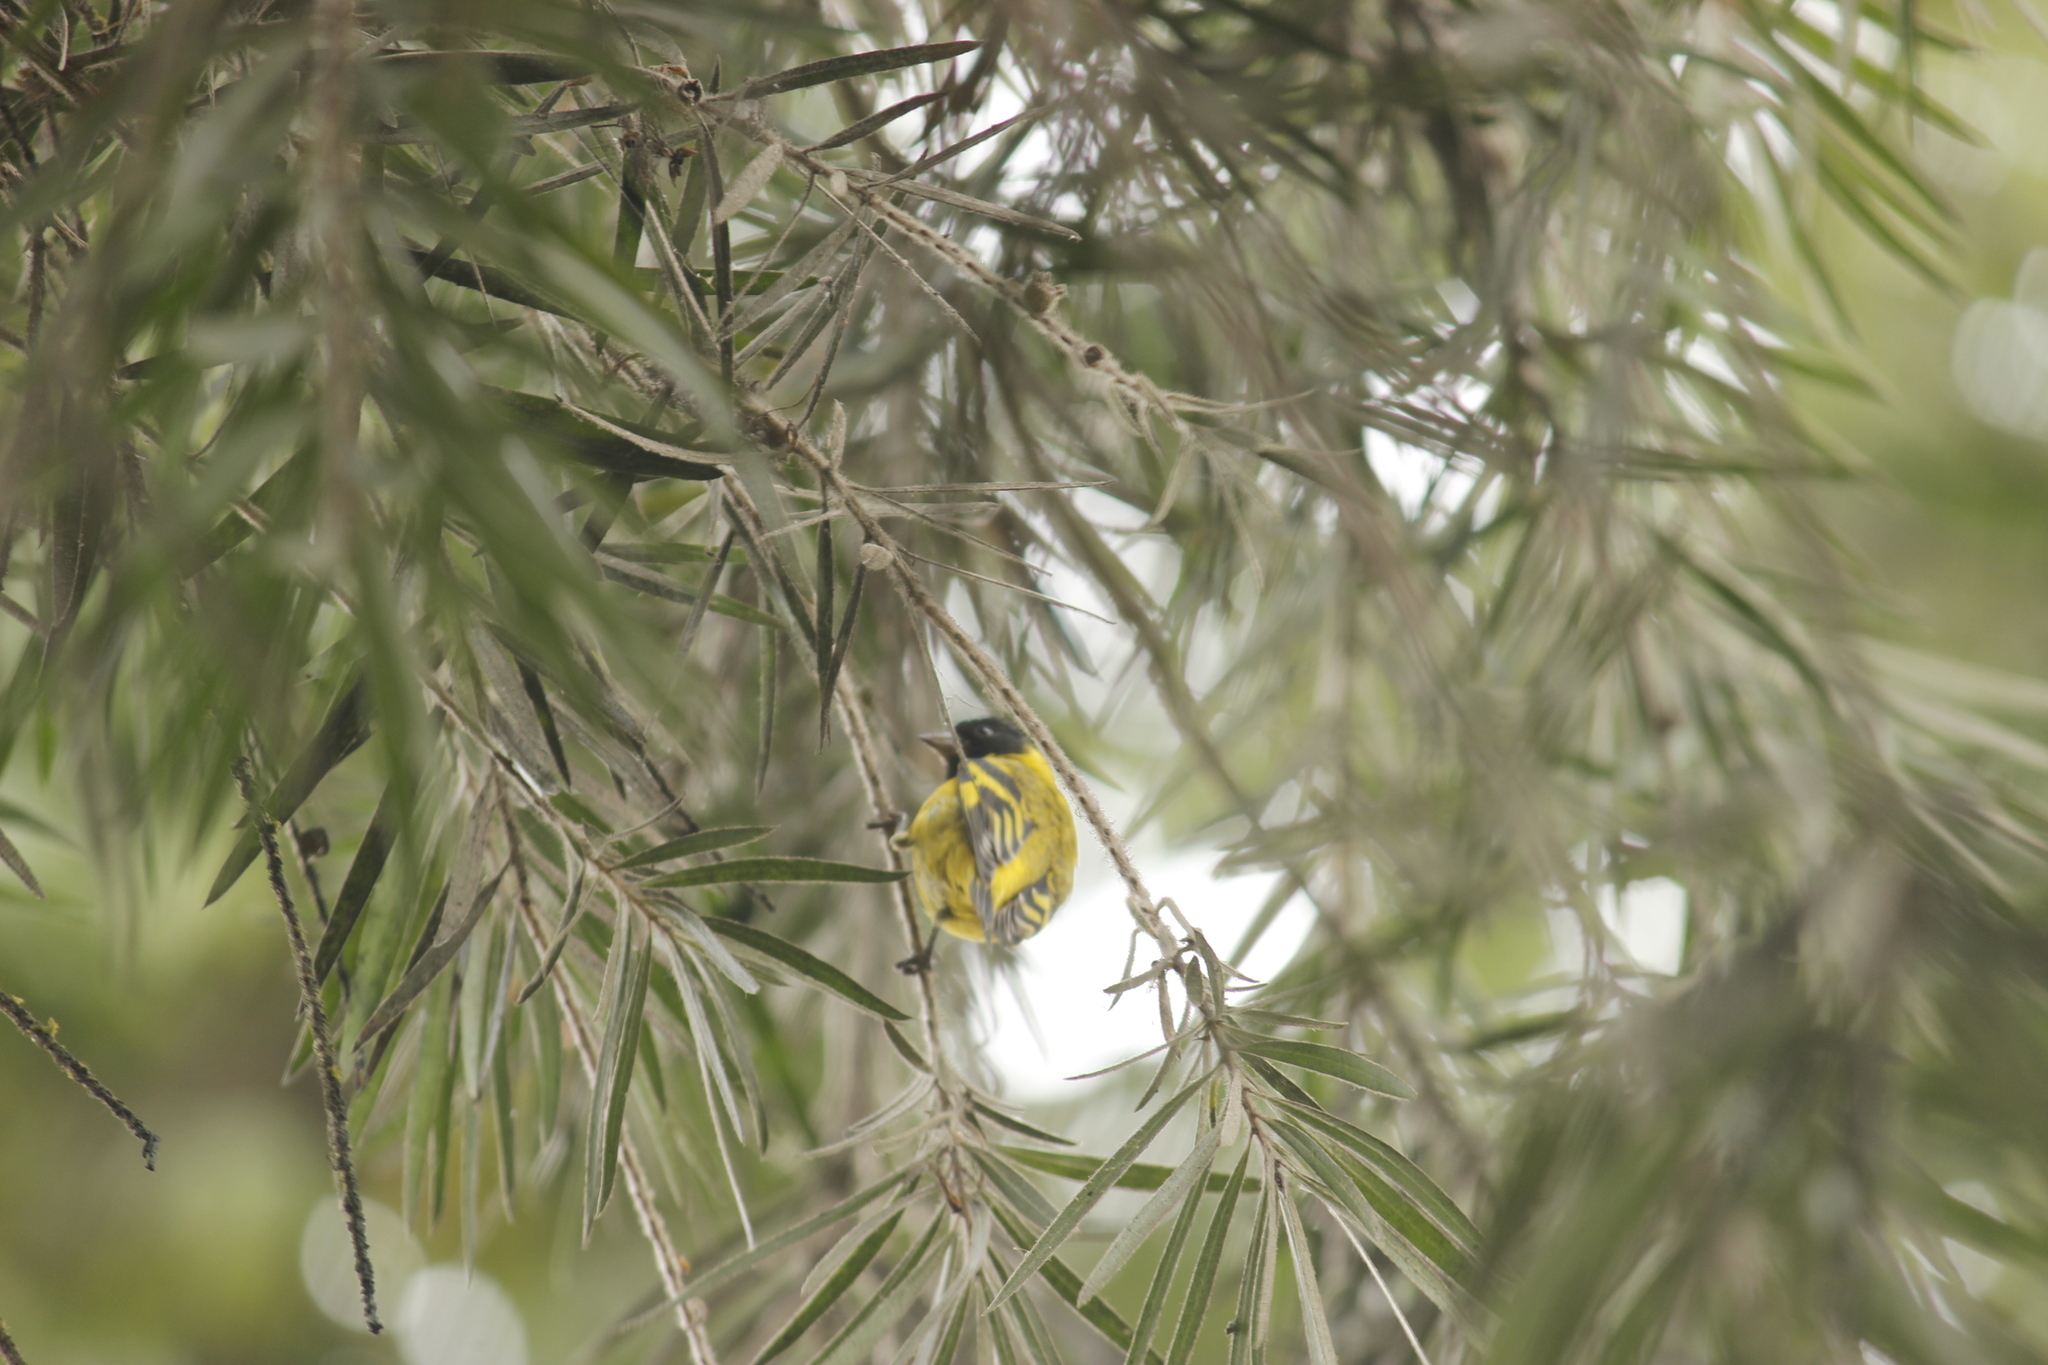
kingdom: Animalia
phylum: Chordata
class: Aves
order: Passeriformes
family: Fringillidae
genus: Spinus
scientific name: Spinus magellanicus
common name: Hooded siskin
